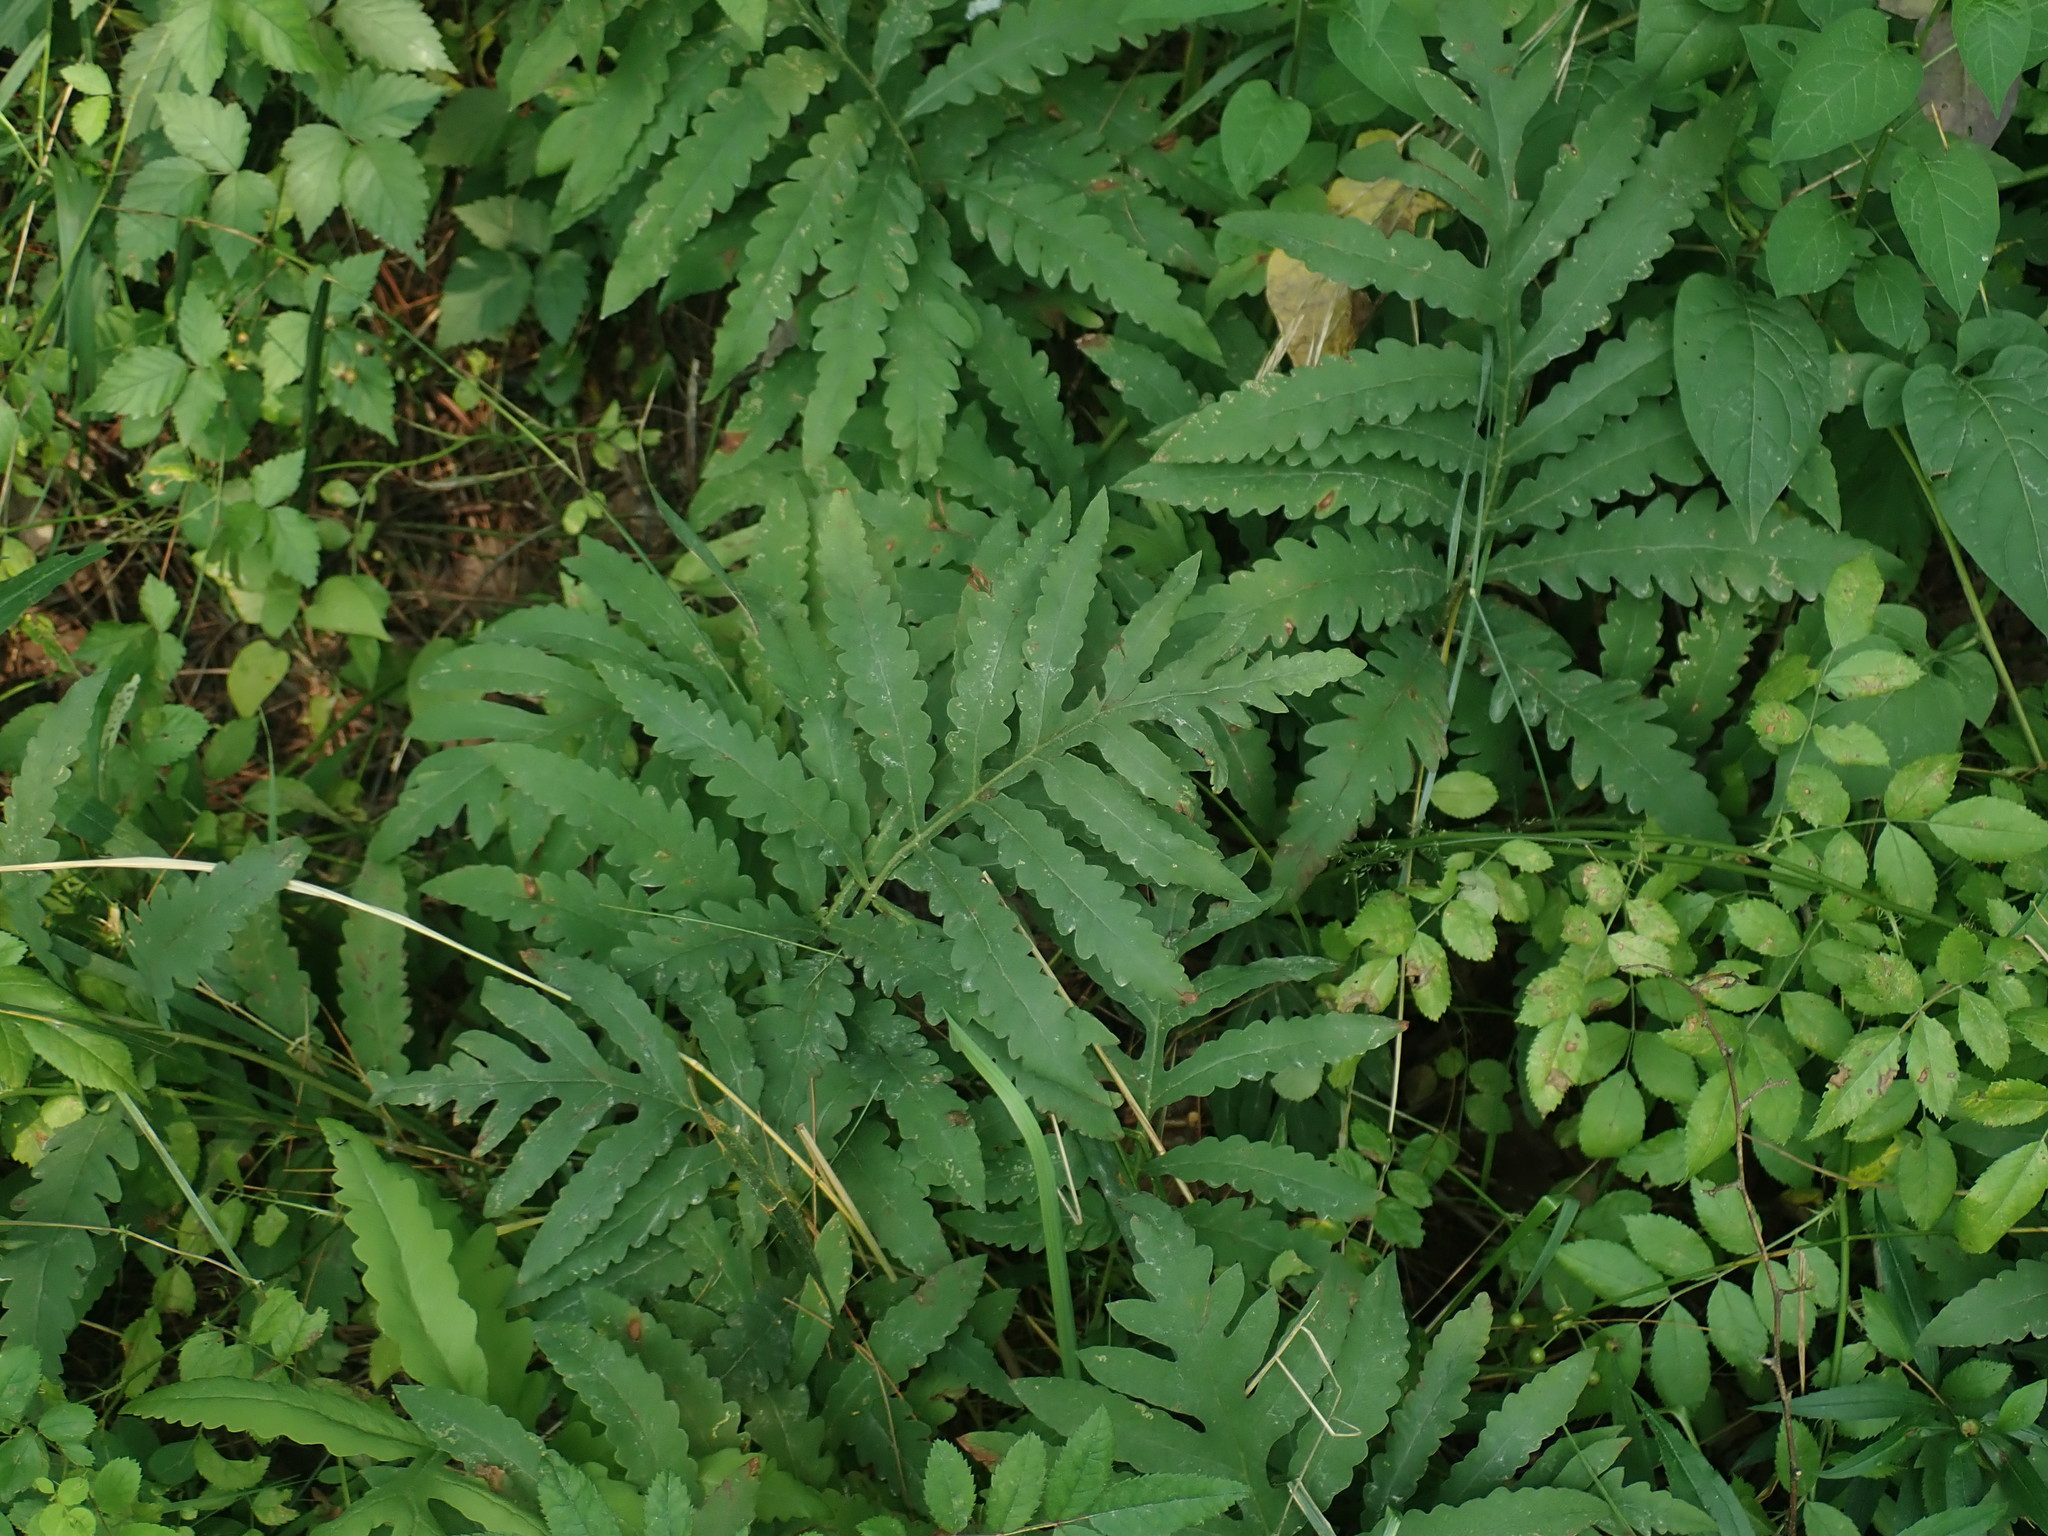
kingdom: Plantae
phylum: Tracheophyta
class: Polypodiopsida
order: Polypodiales
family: Onocleaceae
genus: Onoclea
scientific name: Onoclea sensibilis
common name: Sensitive fern
